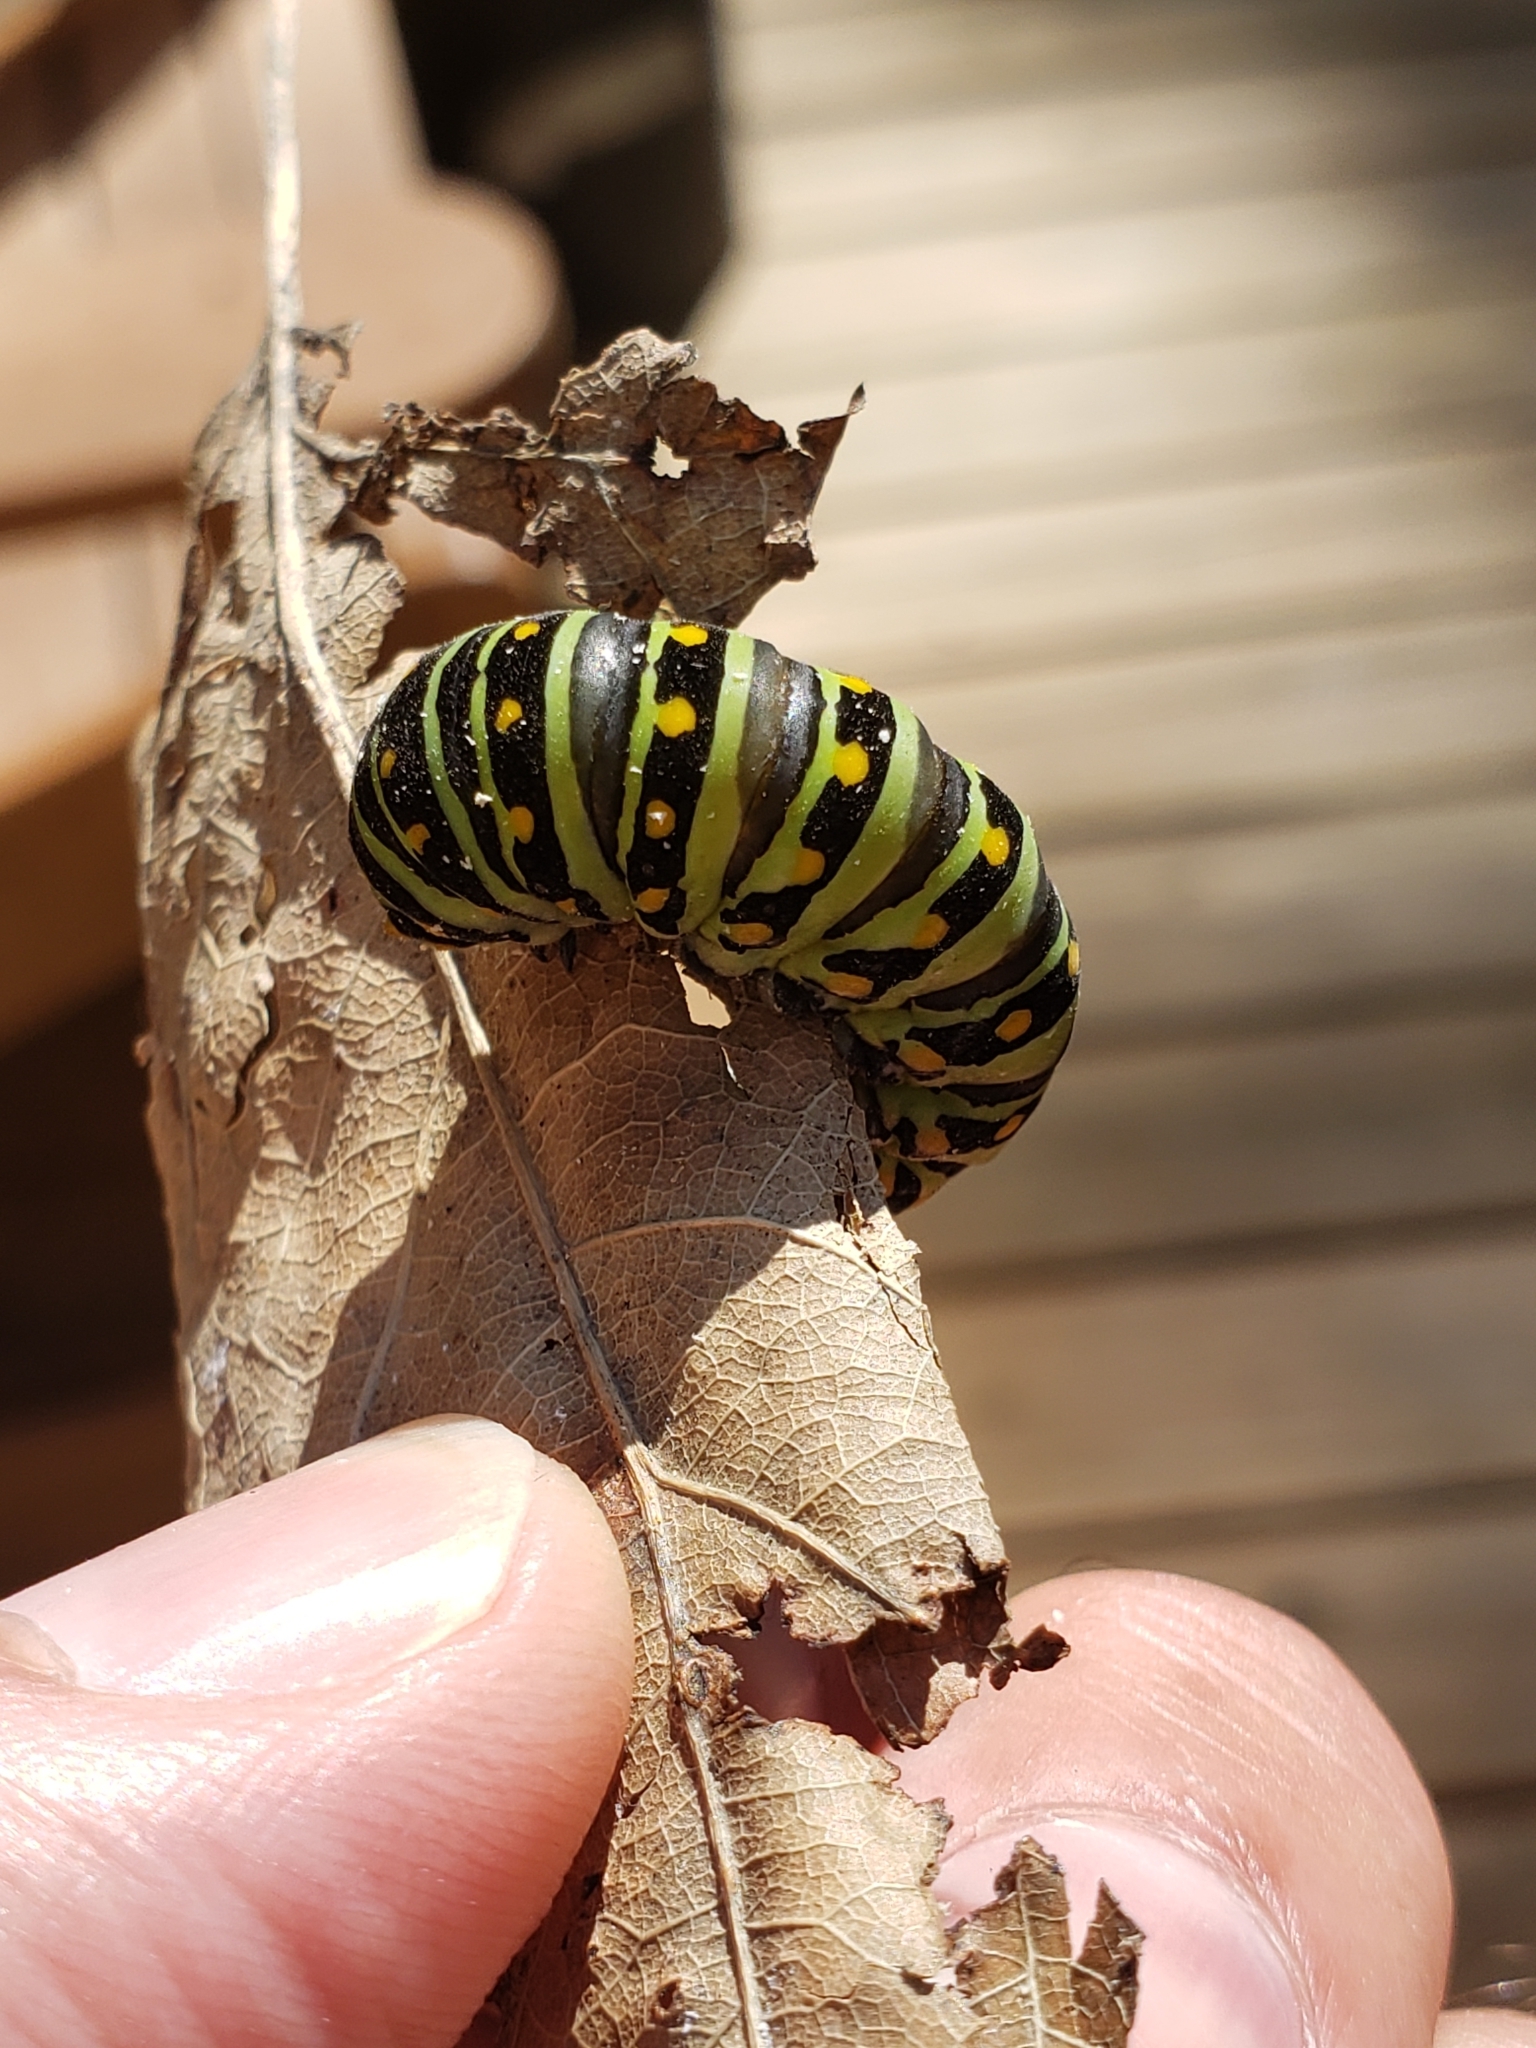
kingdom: Animalia
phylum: Arthropoda
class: Insecta
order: Lepidoptera
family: Papilionidae
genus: Papilio
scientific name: Papilio polyxenes
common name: Black swallowtail
